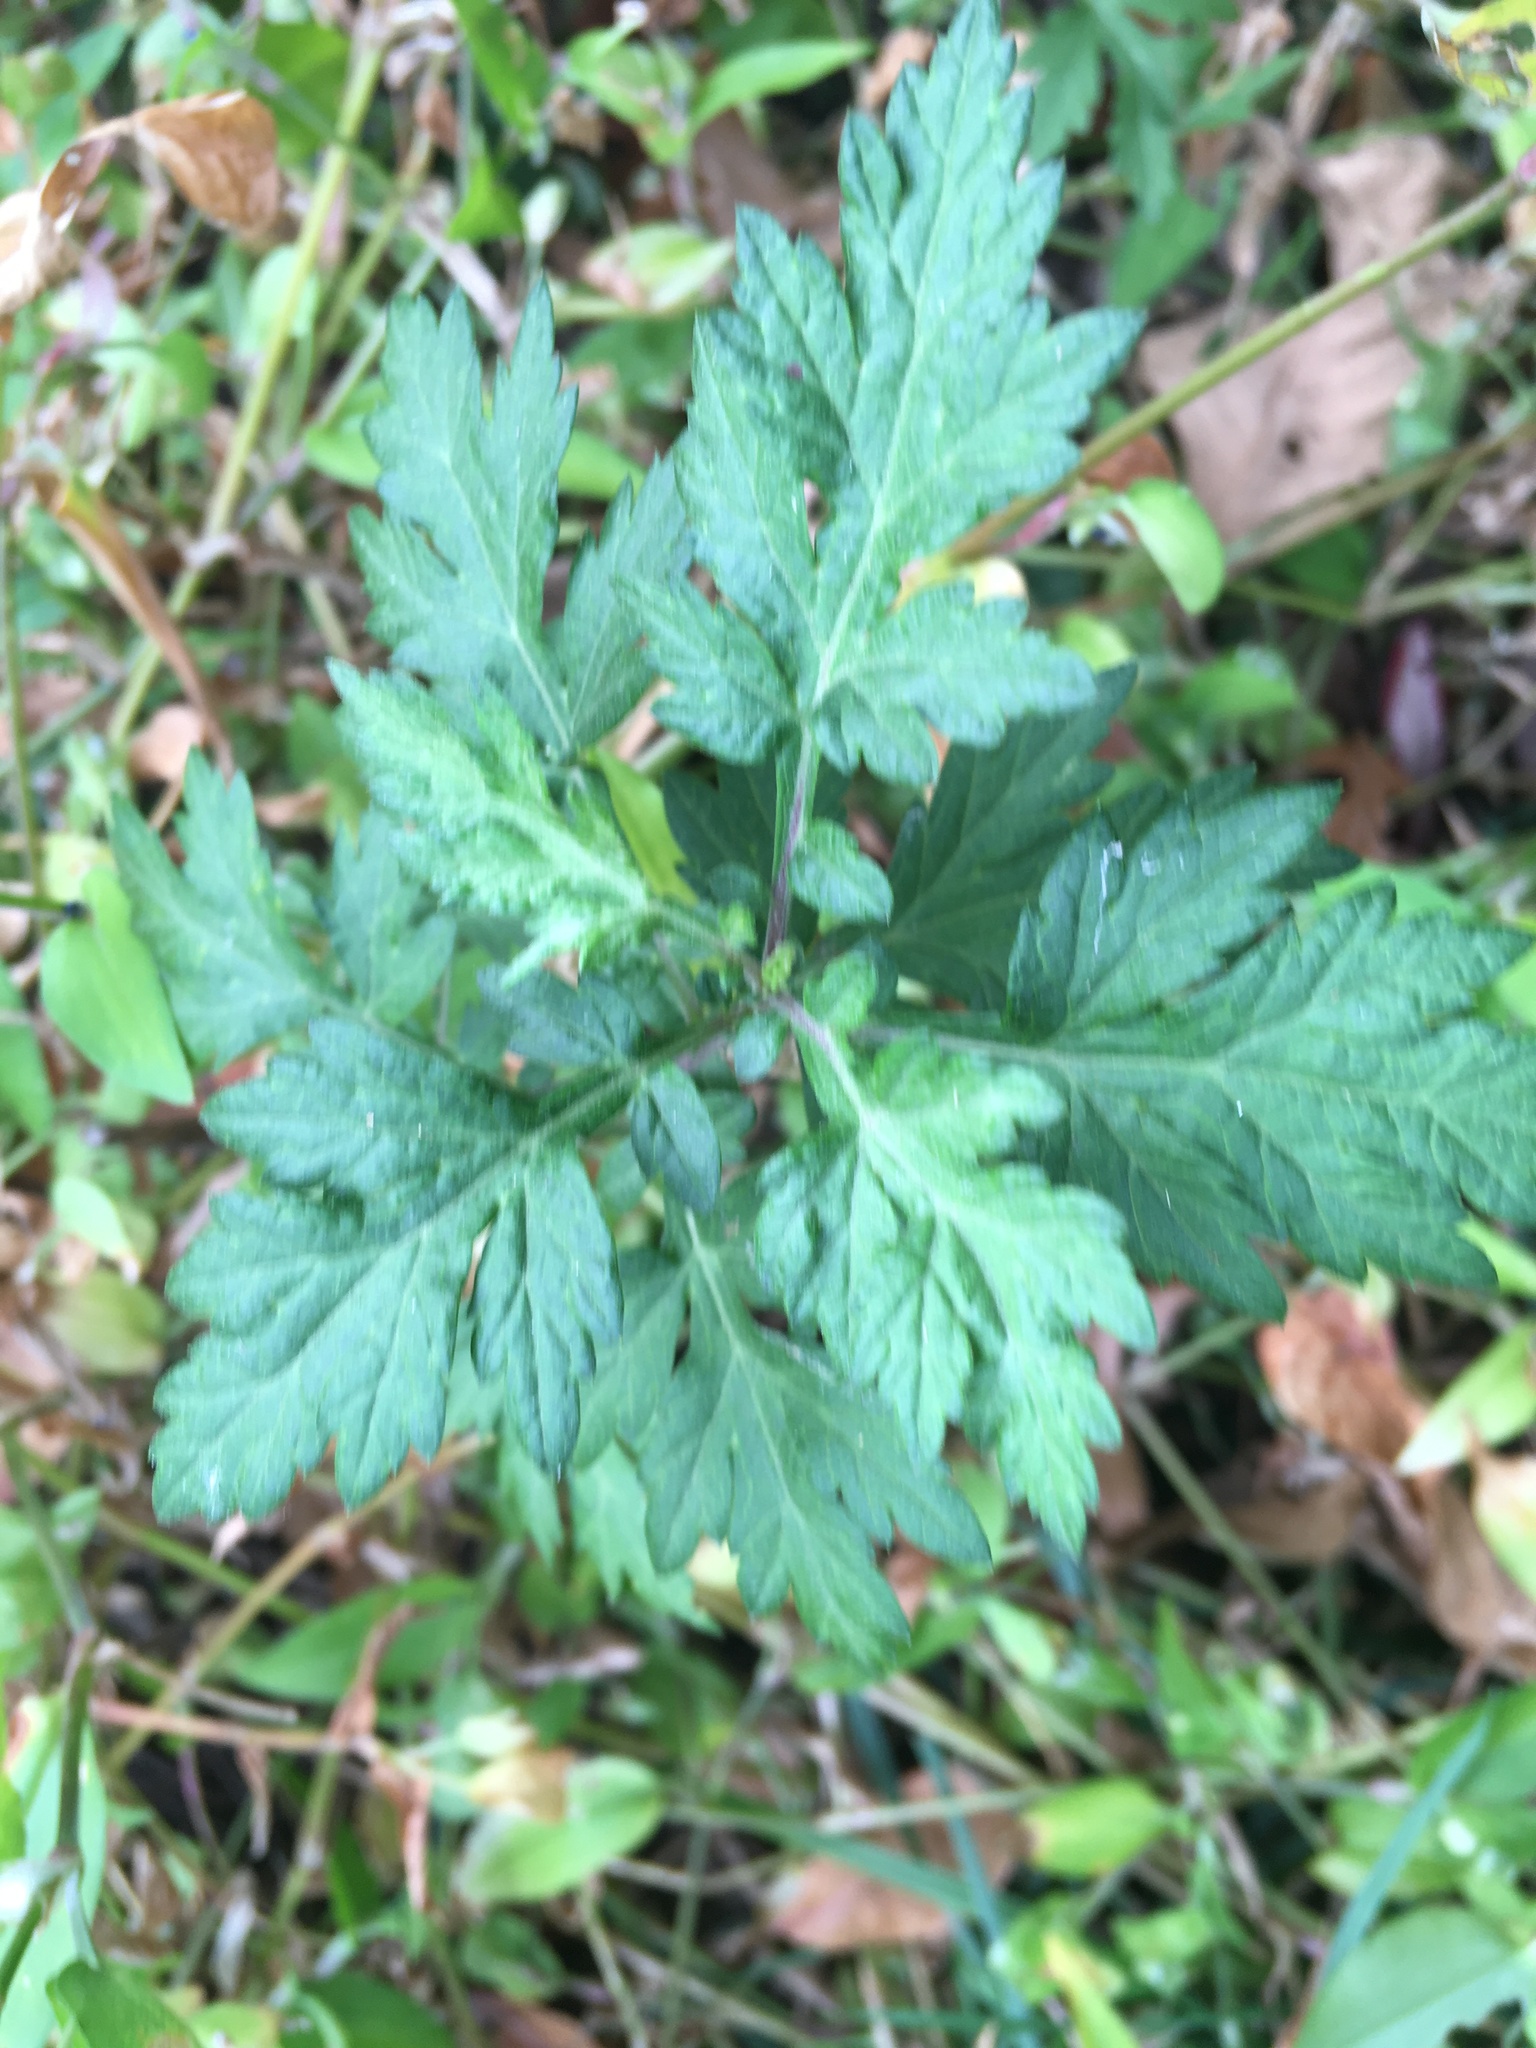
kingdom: Plantae
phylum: Tracheophyta
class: Magnoliopsida
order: Asterales
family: Asteraceae
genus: Artemisia
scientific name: Artemisia vulgaris
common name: Mugwort
